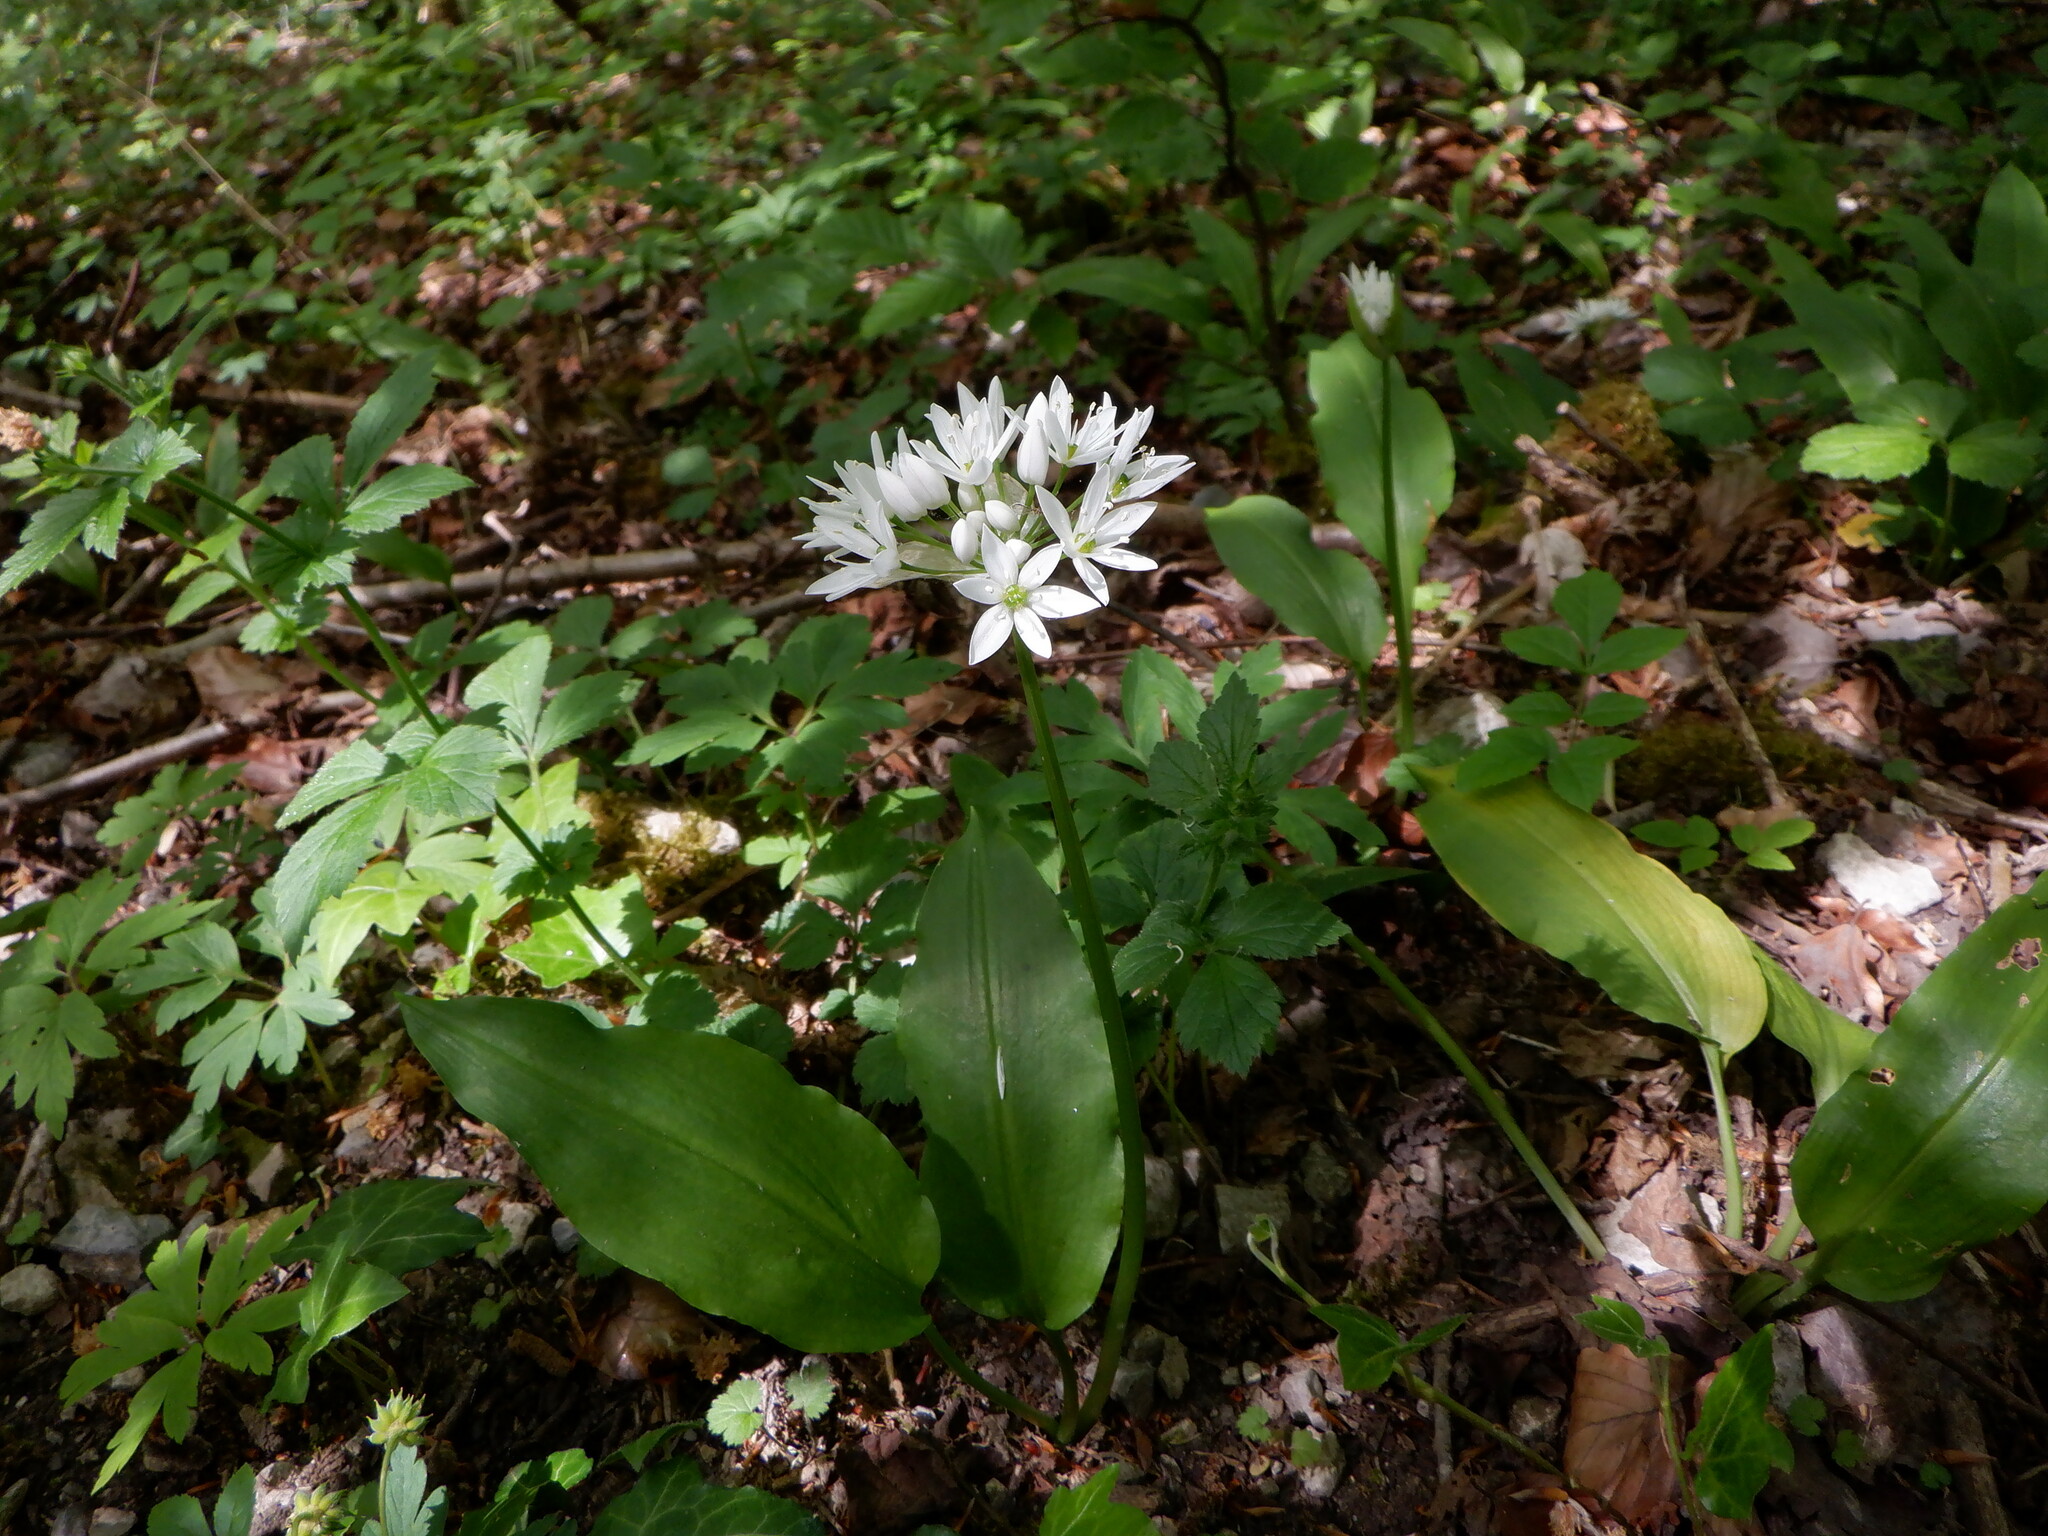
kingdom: Plantae
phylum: Tracheophyta
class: Liliopsida
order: Asparagales
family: Amaryllidaceae
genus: Allium
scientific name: Allium ursinum
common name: Ramsons
